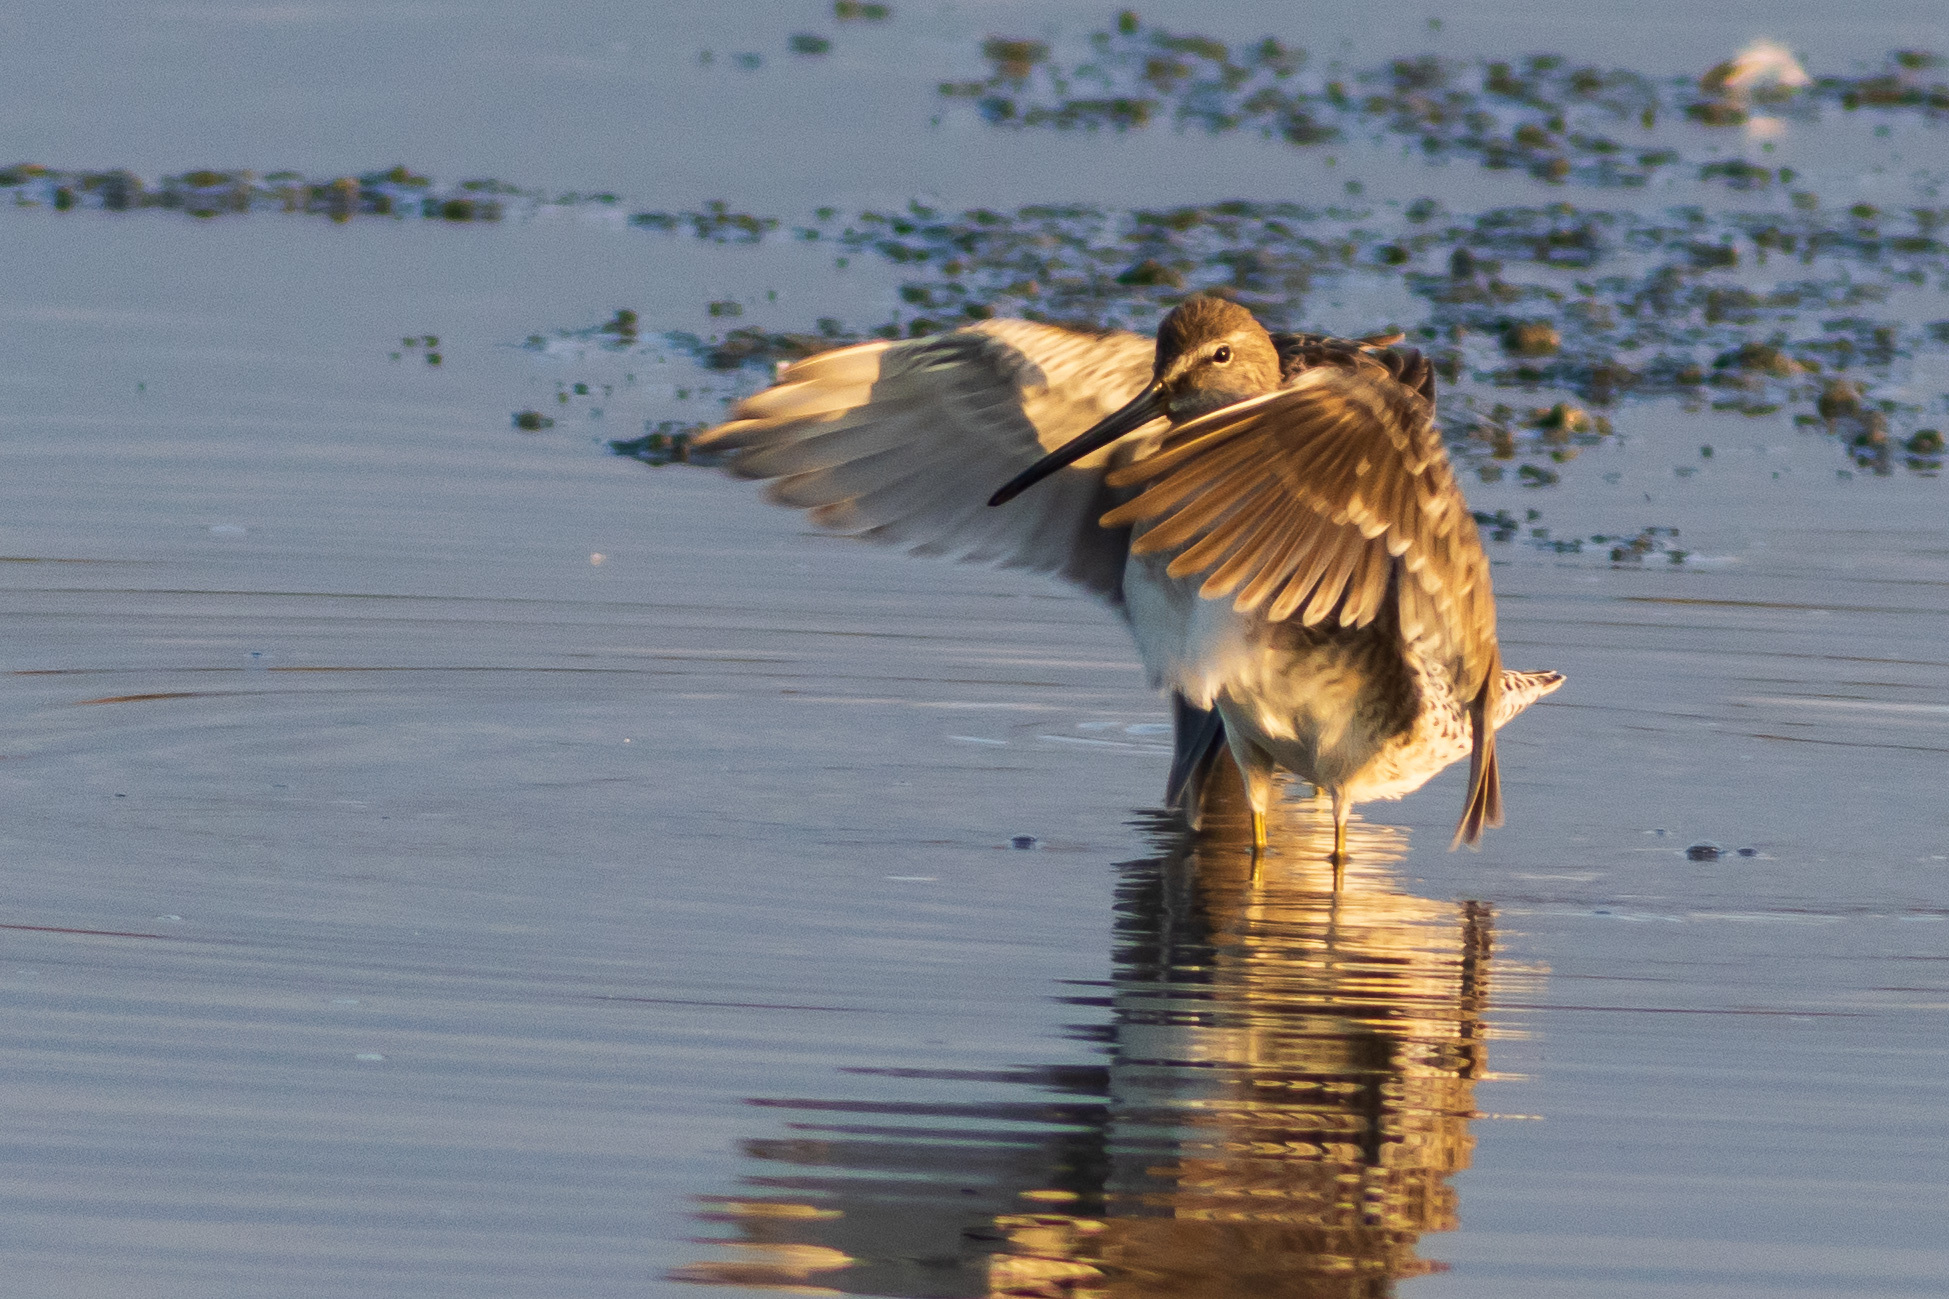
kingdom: Animalia
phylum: Chordata
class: Aves
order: Charadriiformes
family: Scolopacidae
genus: Limnodromus
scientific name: Limnodromus scolopaceus
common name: Long-billed dowitcher
